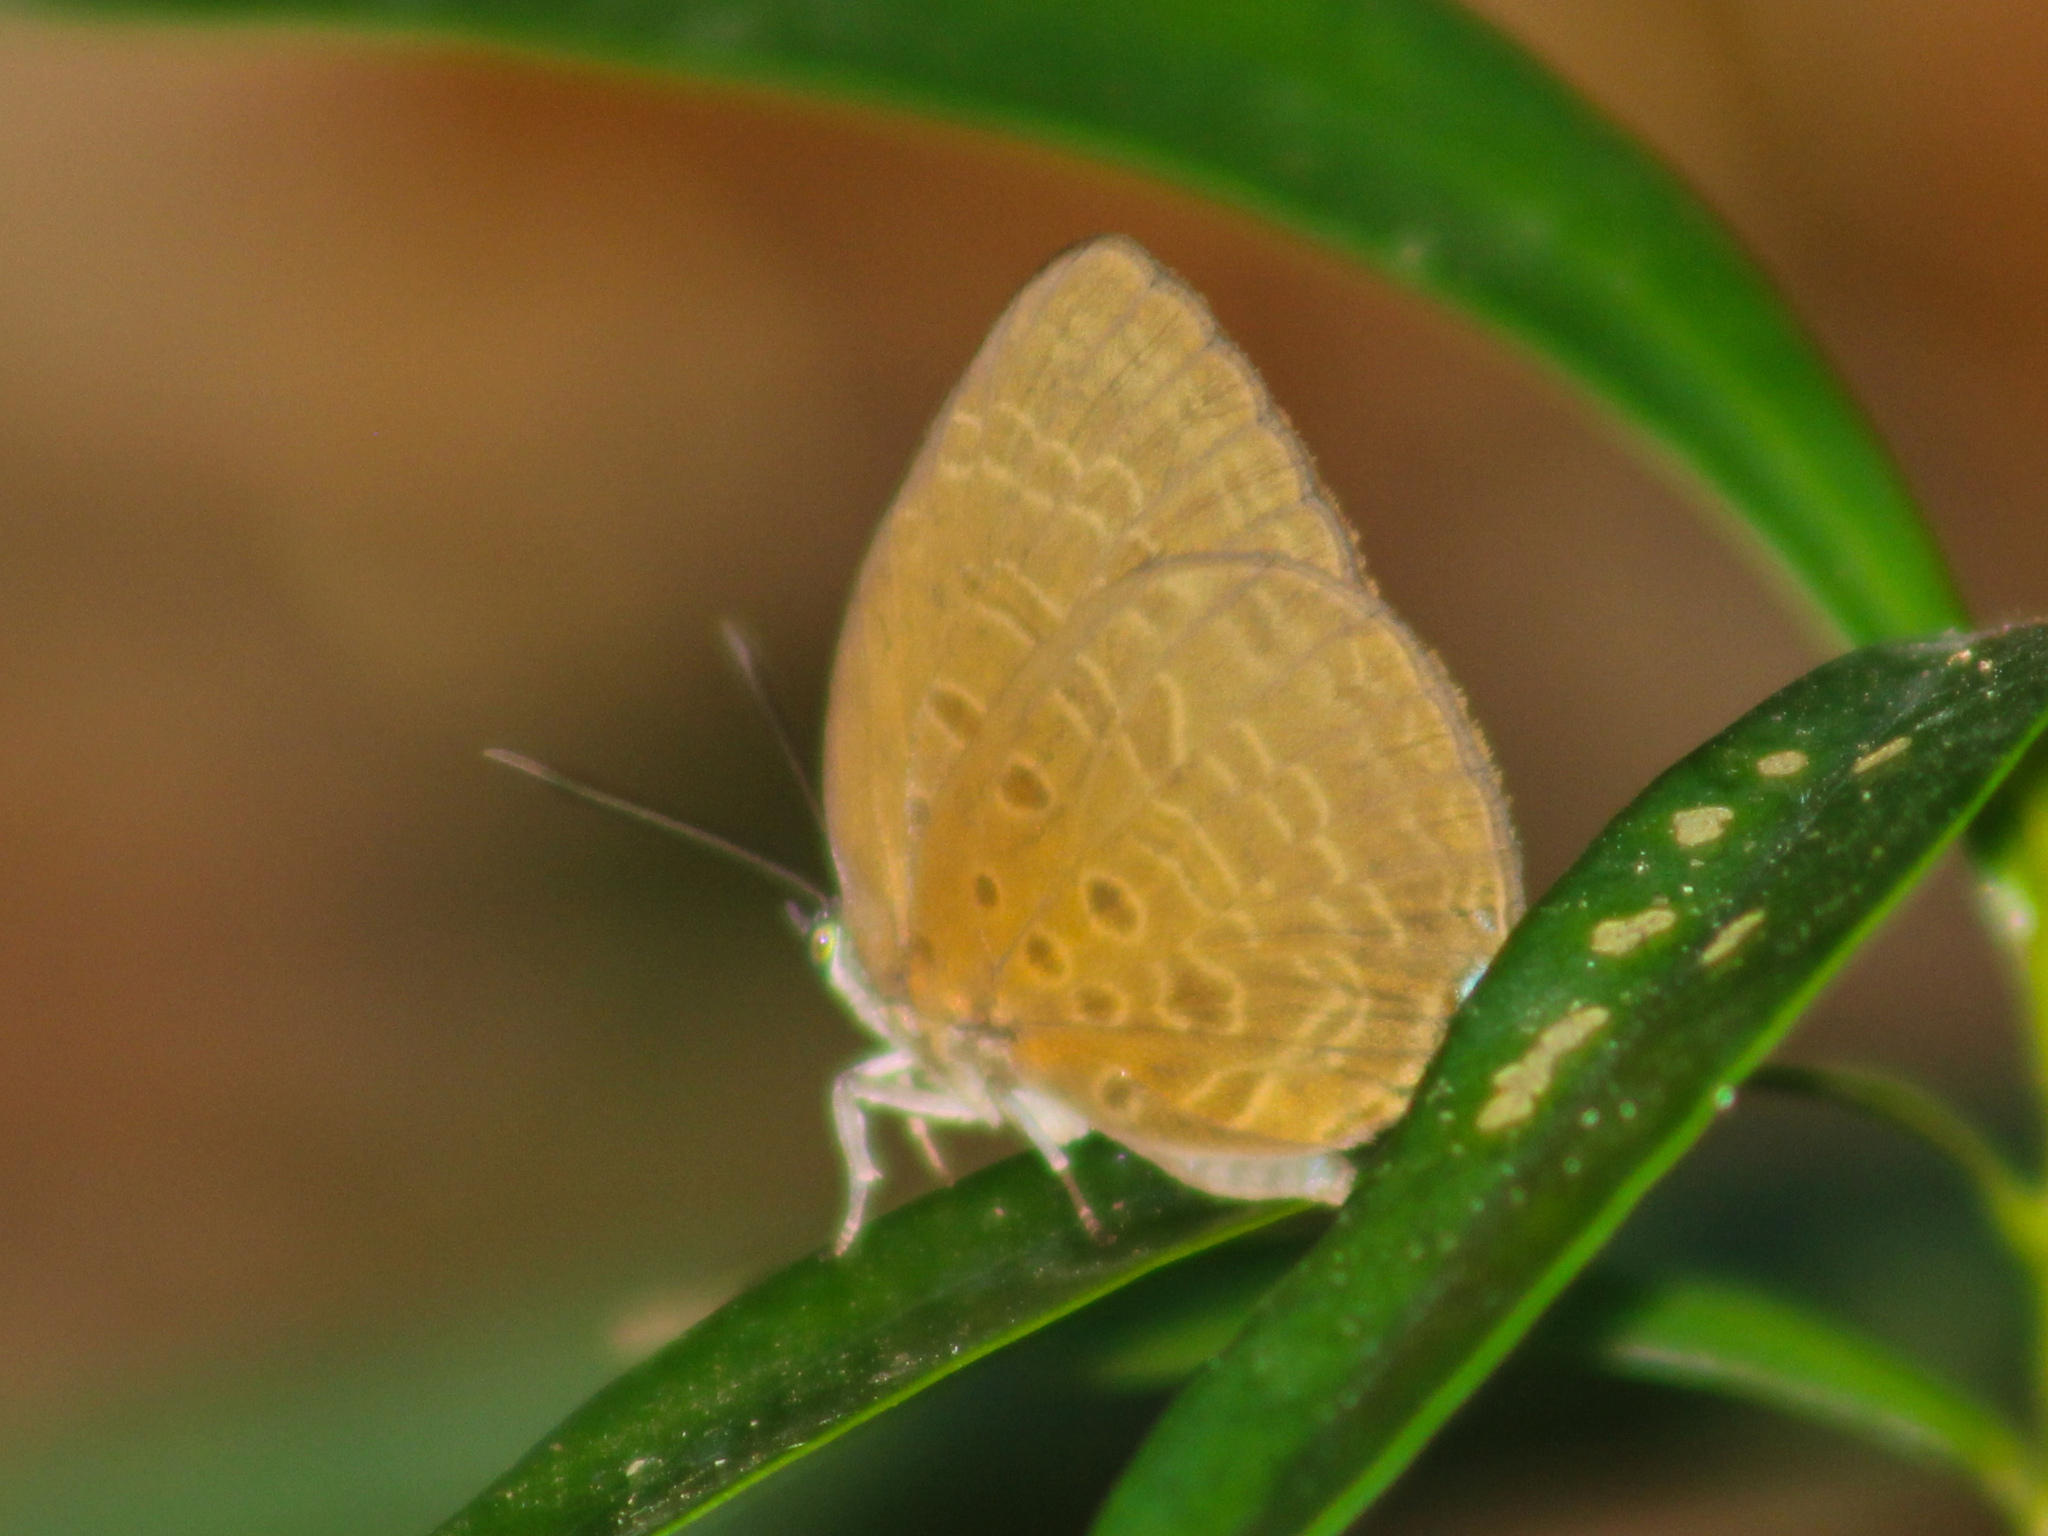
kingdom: Animalia
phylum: Arthropoda
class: Insecta
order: Lepidoptera
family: Lycaenidae
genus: Arhopala
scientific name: Arhopala atosia
